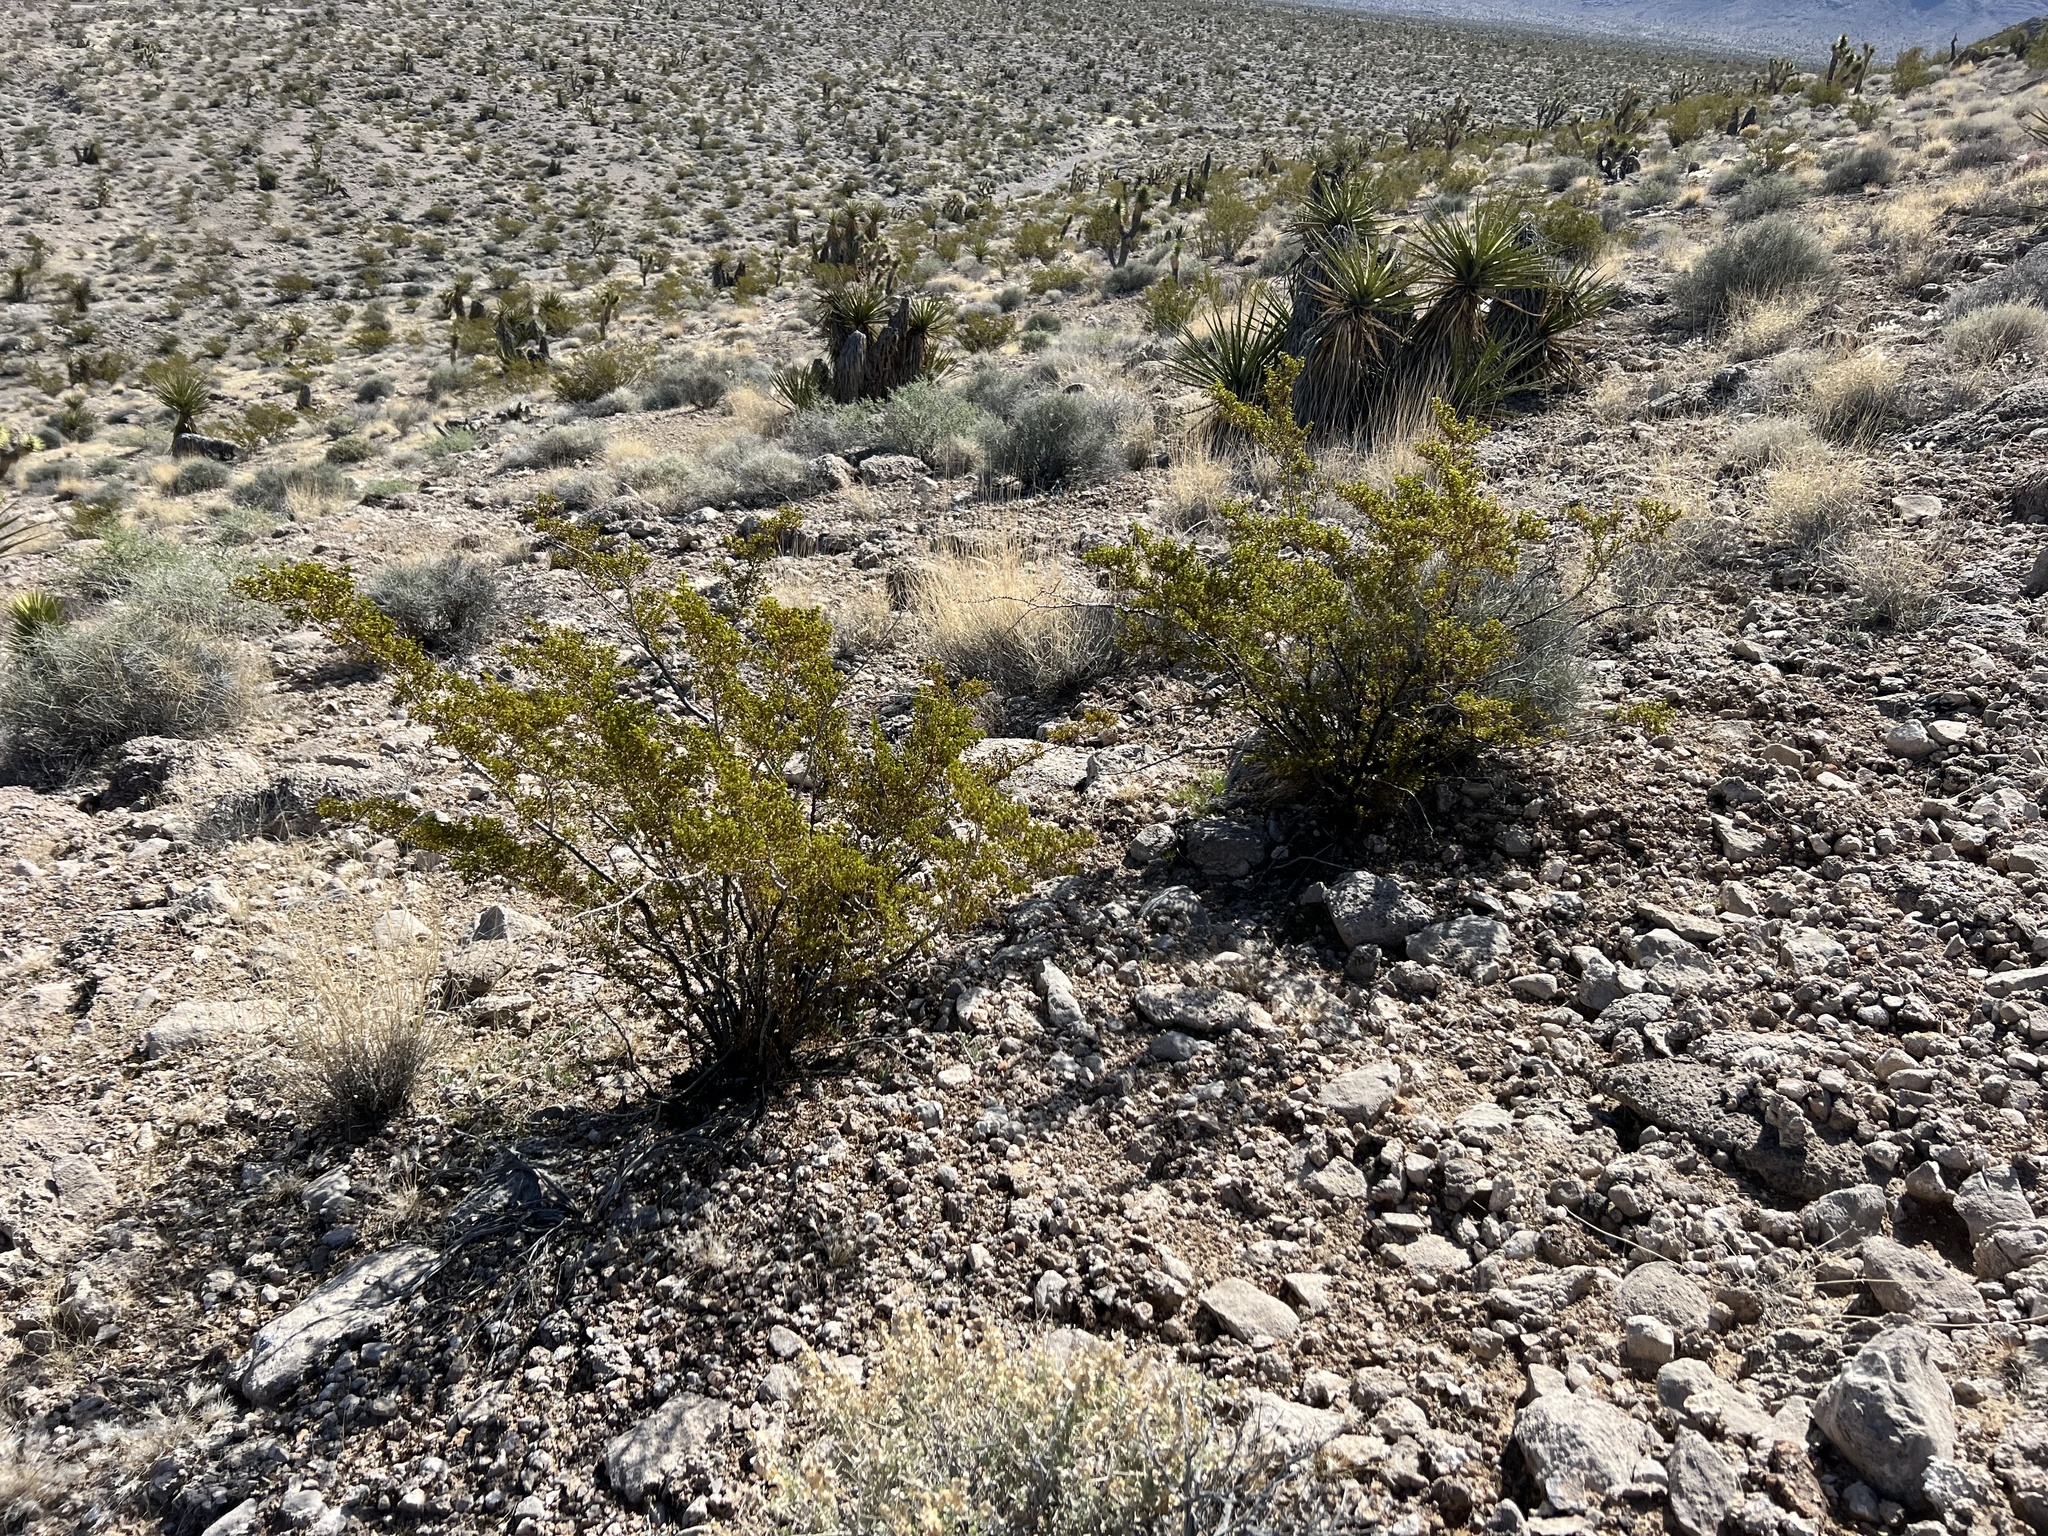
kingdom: Plantae
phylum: Tracheophyta
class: Magnoliopsida
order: Zygophyllales
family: Zygophyllaceae
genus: Larrea
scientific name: Larrea tridentata
